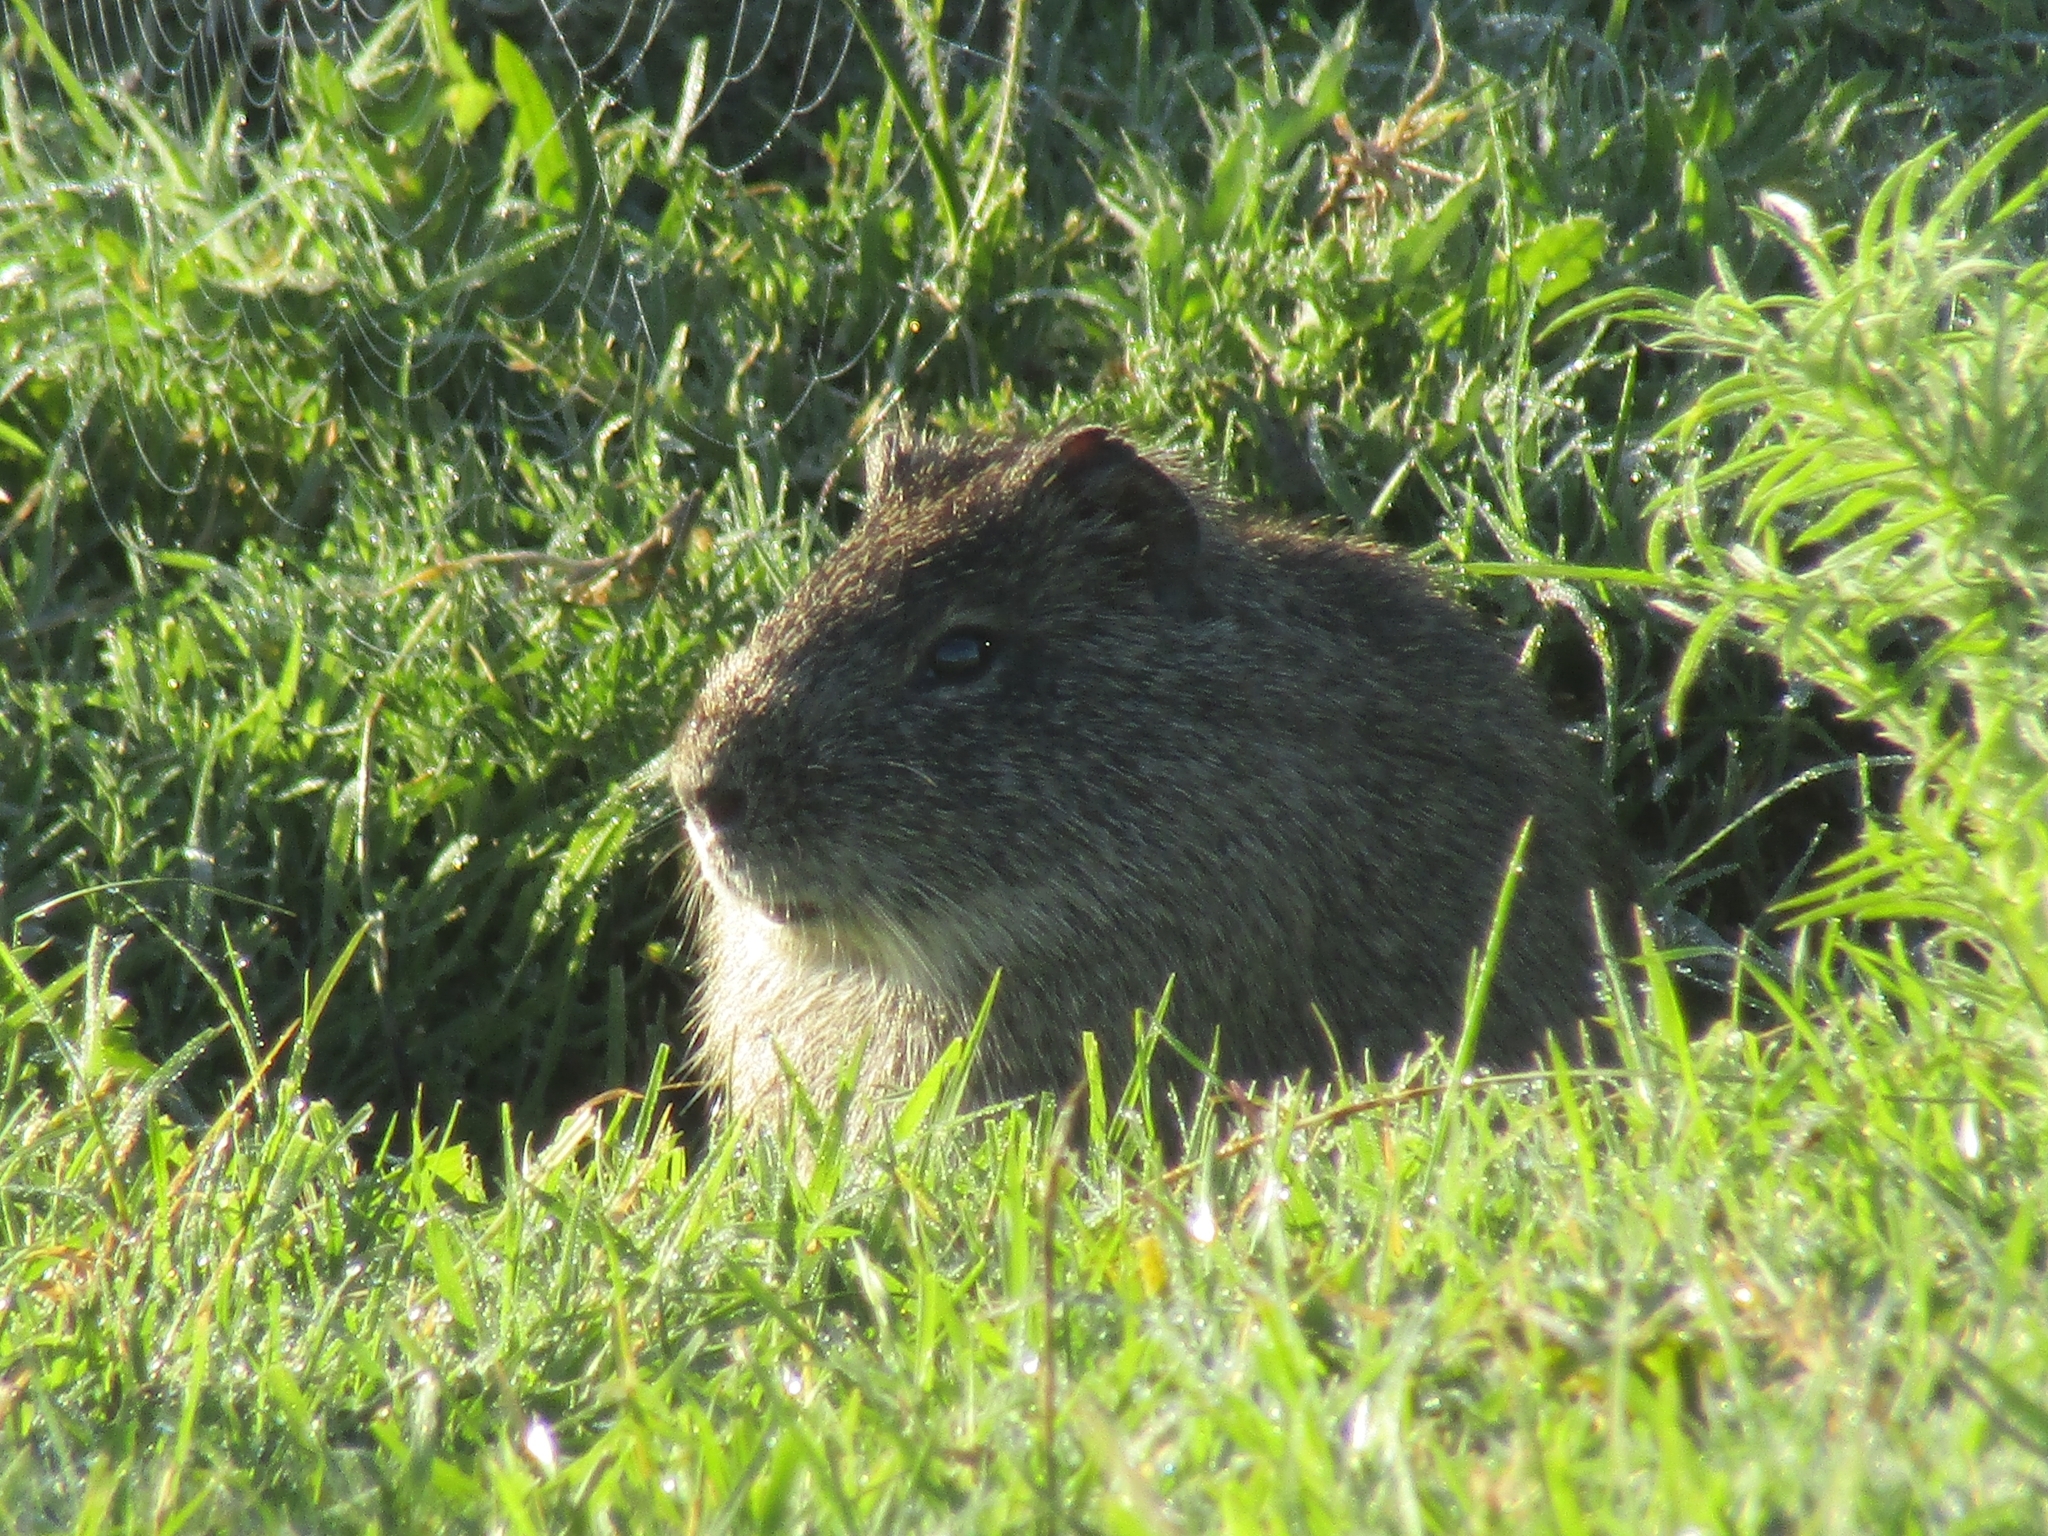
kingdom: Animalia
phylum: Chordata
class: Mammalia
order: Rodentia
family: Caviidae
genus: Cavia
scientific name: Cavia aperea
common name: Brazilian guinea pig
